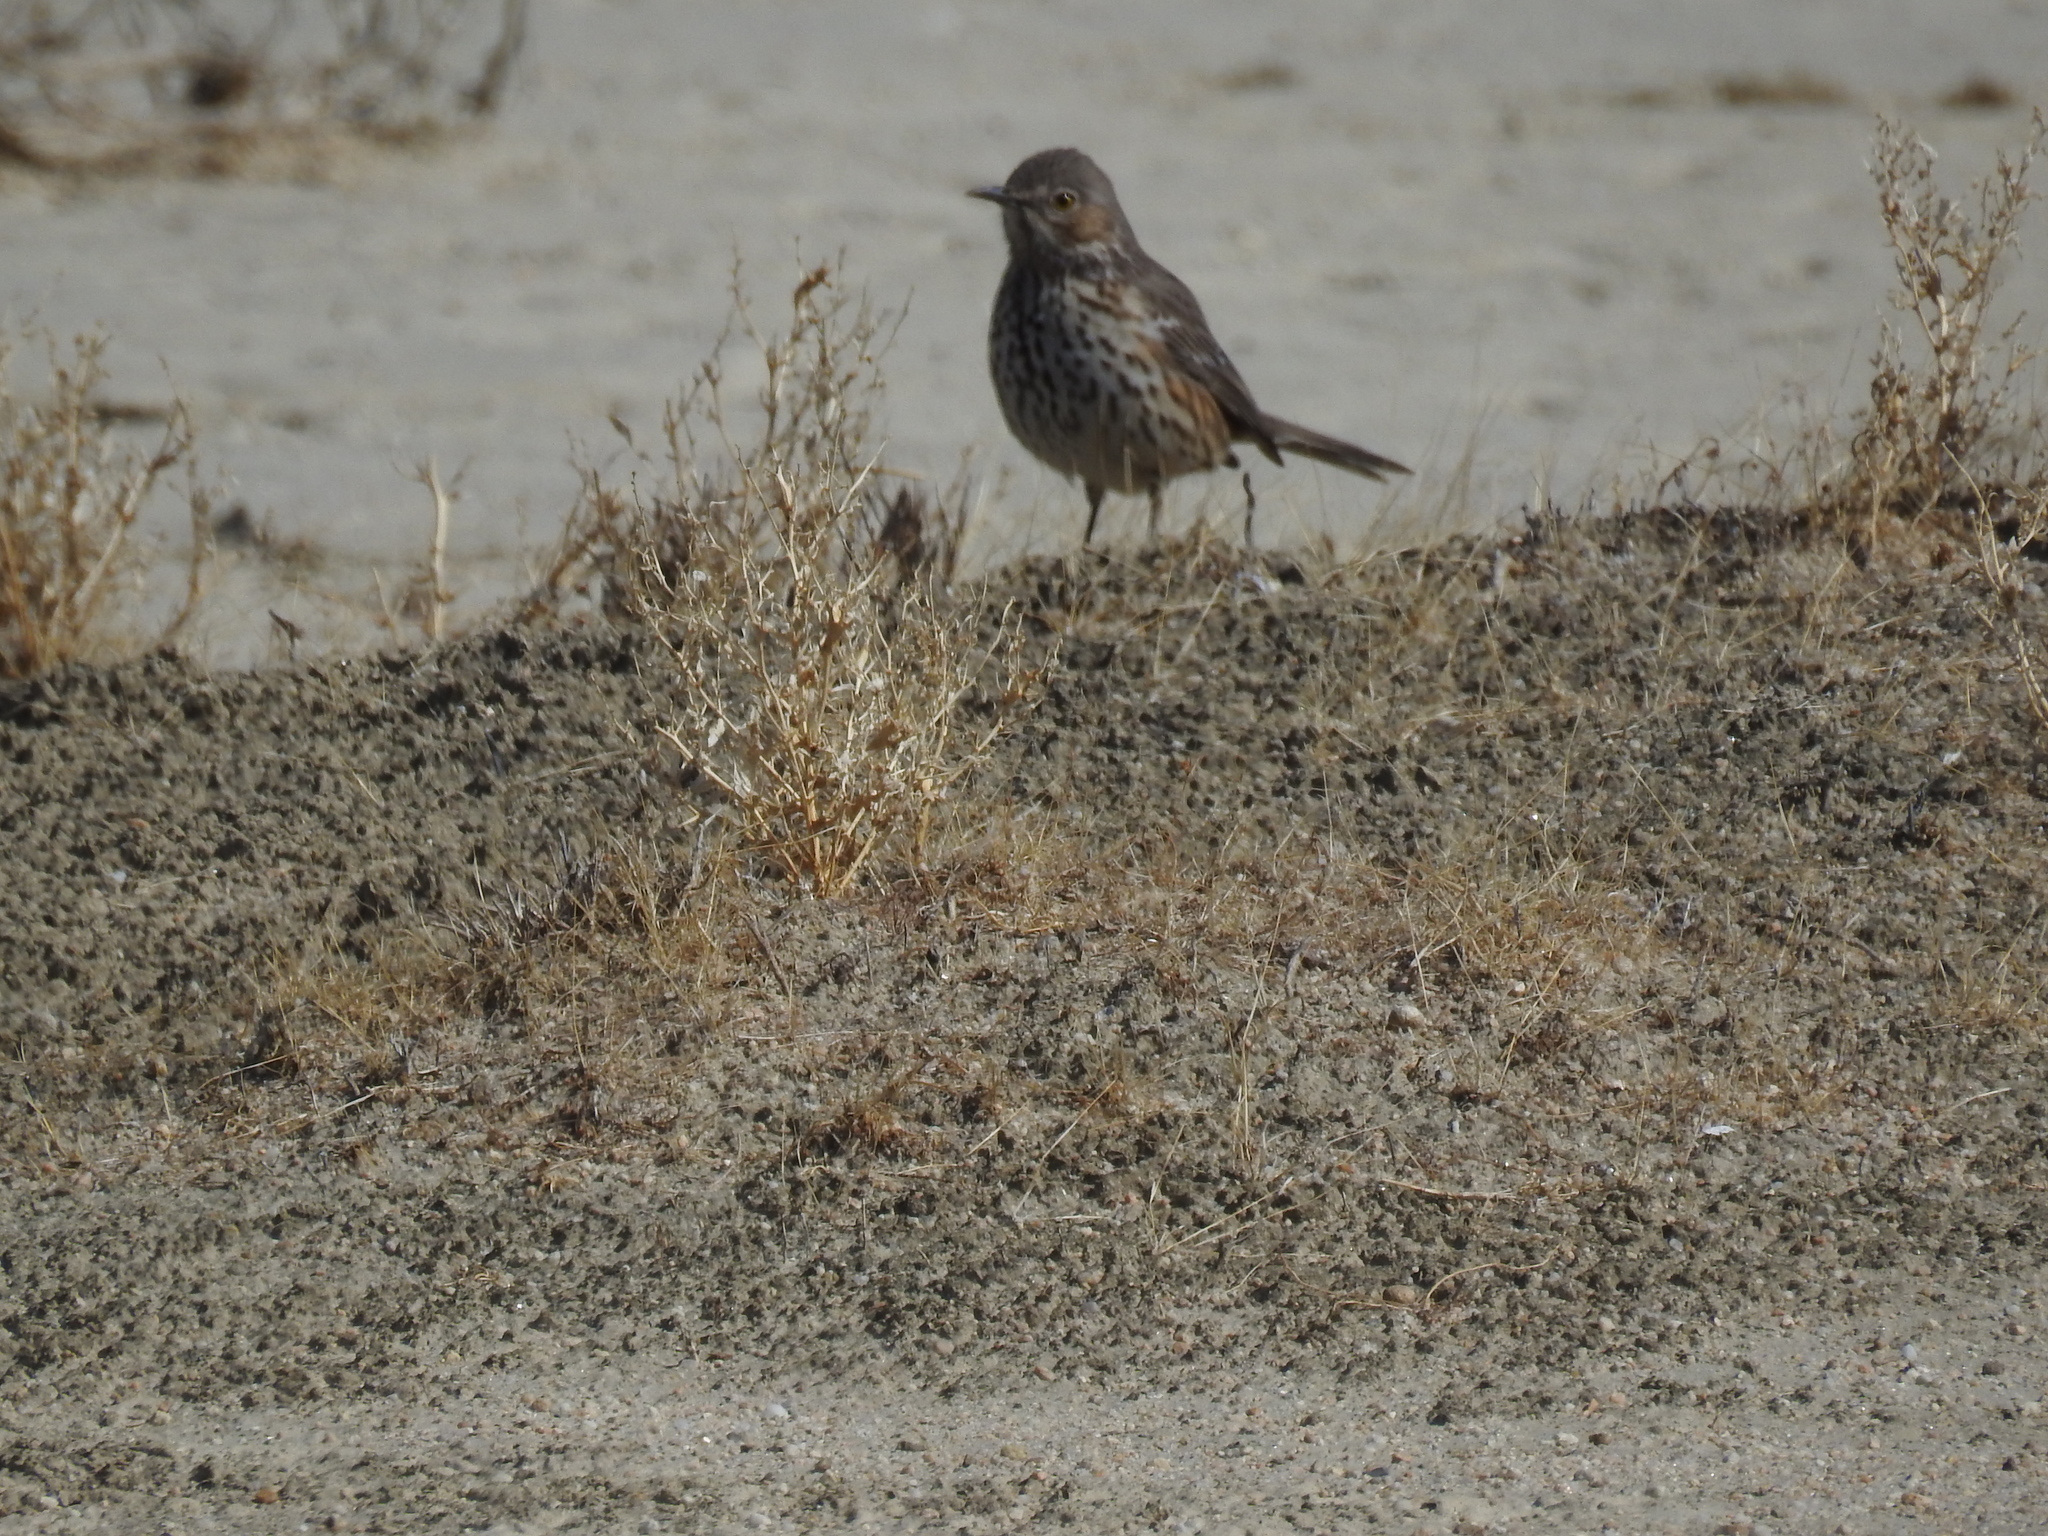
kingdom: Animalia
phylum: Chordata
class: Aves
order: Passeriformes
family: Mimidae
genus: Oreoscoptes
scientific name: Oreoscoptes montanus
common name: Sage thrasher
